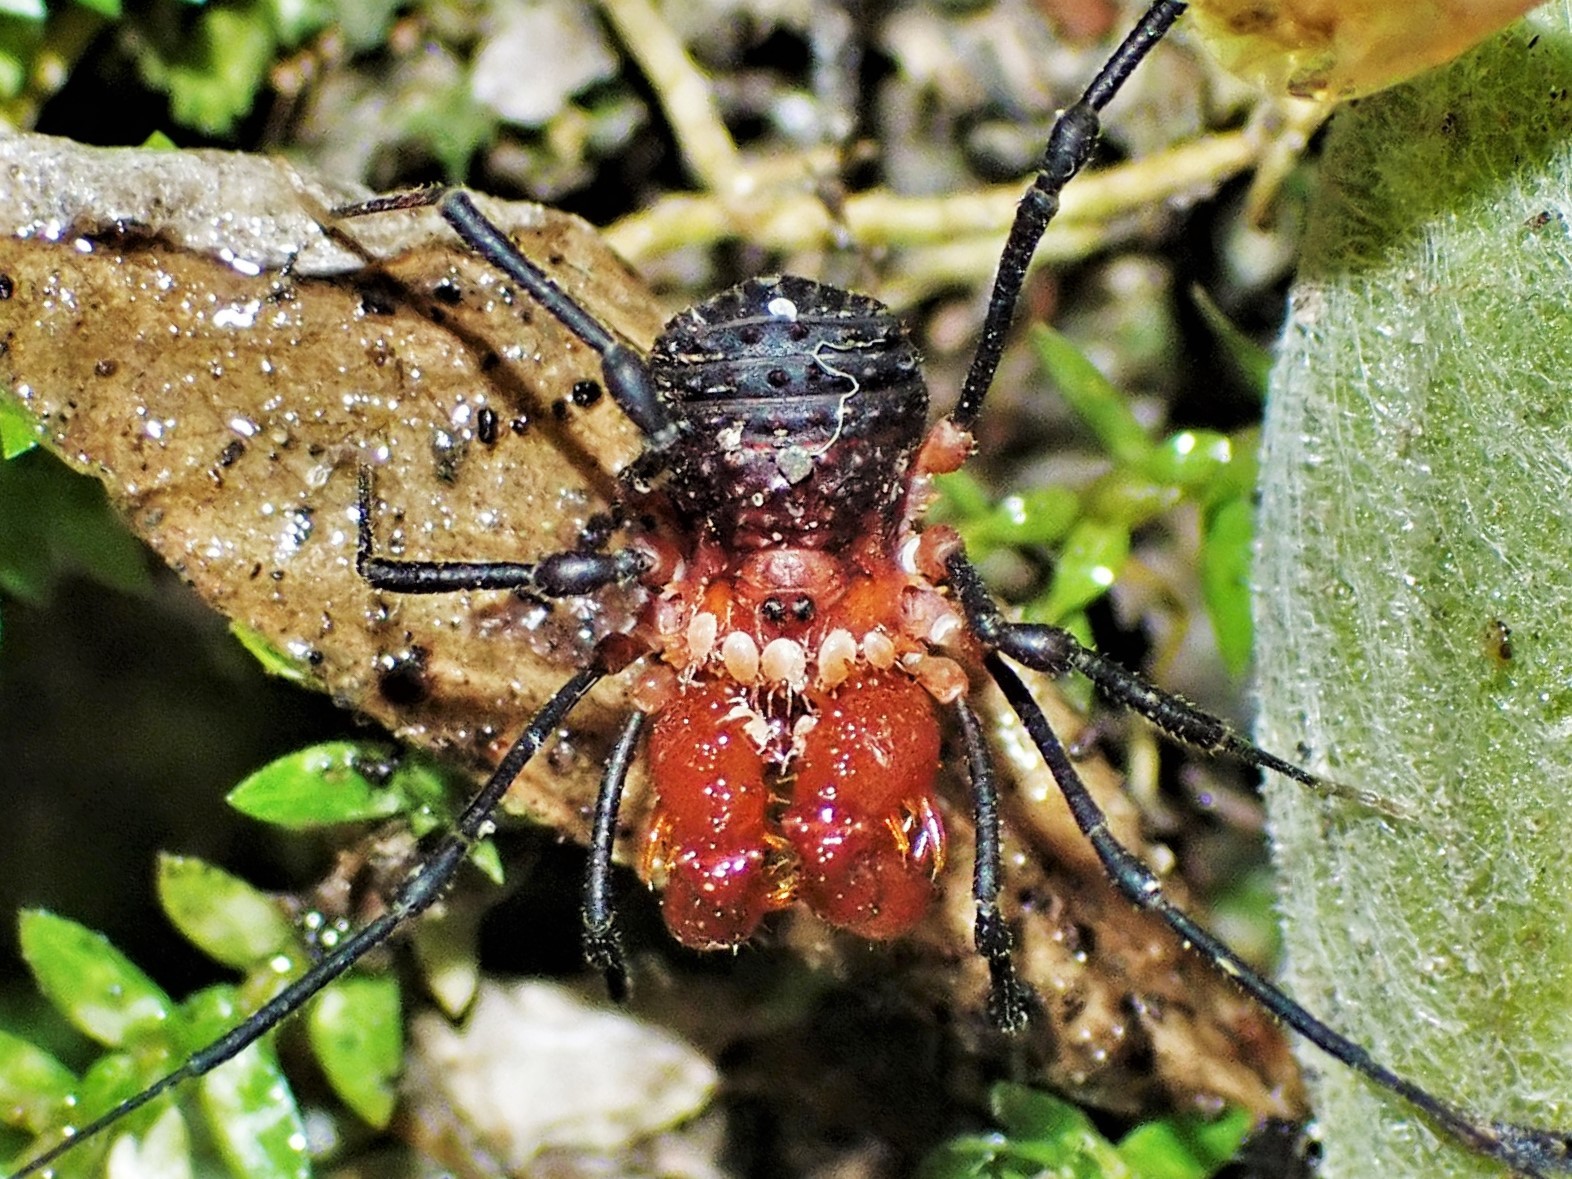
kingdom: Animalia
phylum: Arthropoda
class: Arachnida
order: Opiliones
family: Triaenonychidae
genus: Sorensenella
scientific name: Sorensenella prehensor
